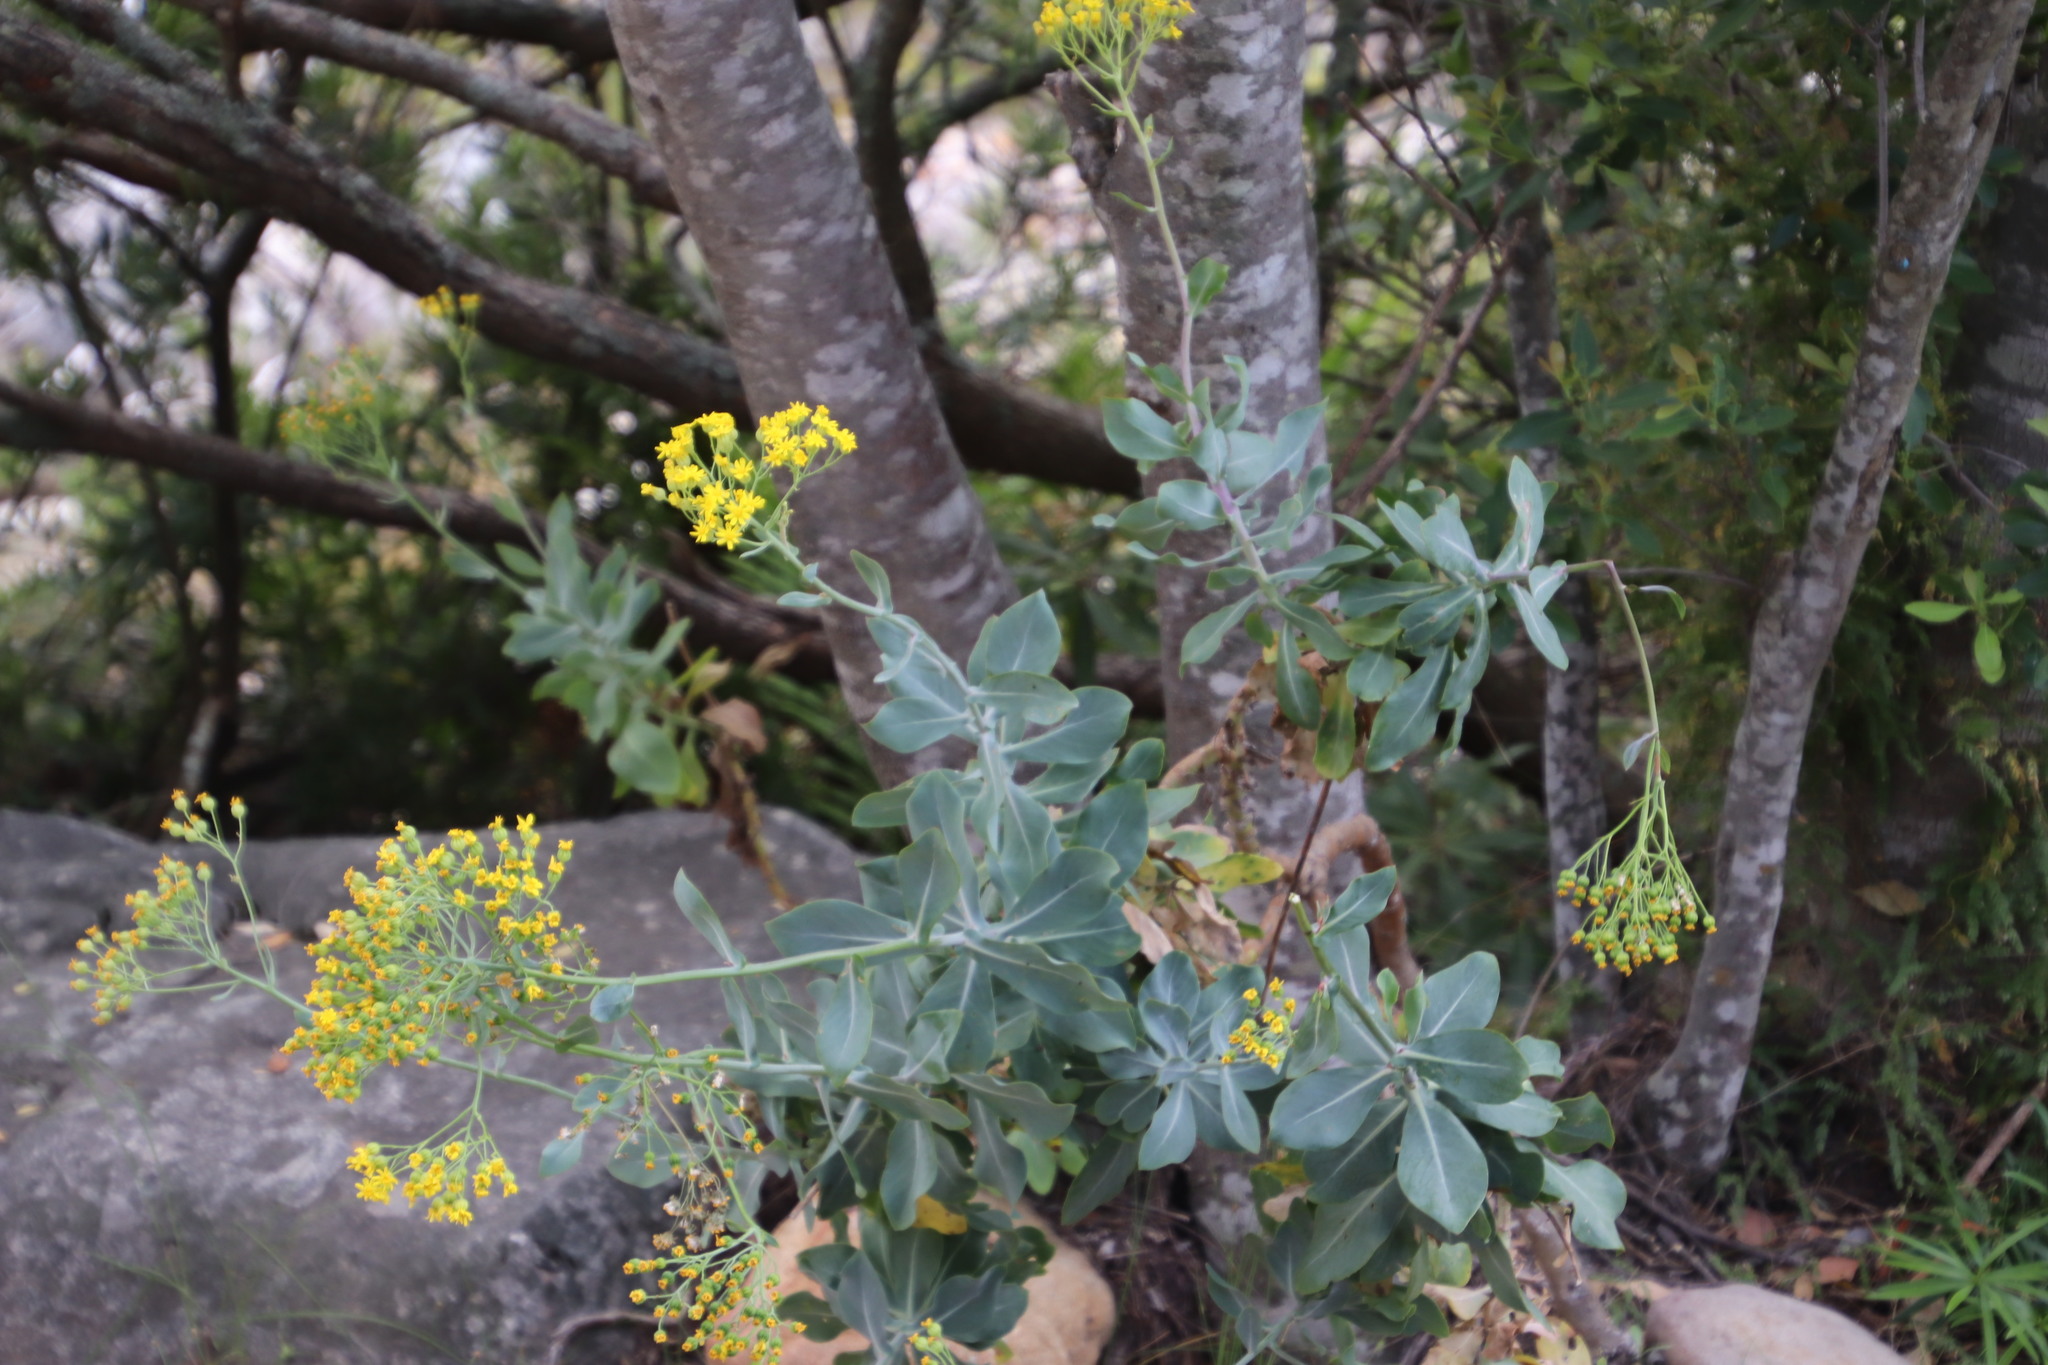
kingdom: Plantae
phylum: Tracheophyta
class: Magnoliopsida
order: Asterales
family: Asteraceae
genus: Othonna
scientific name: Othonna parviflora
